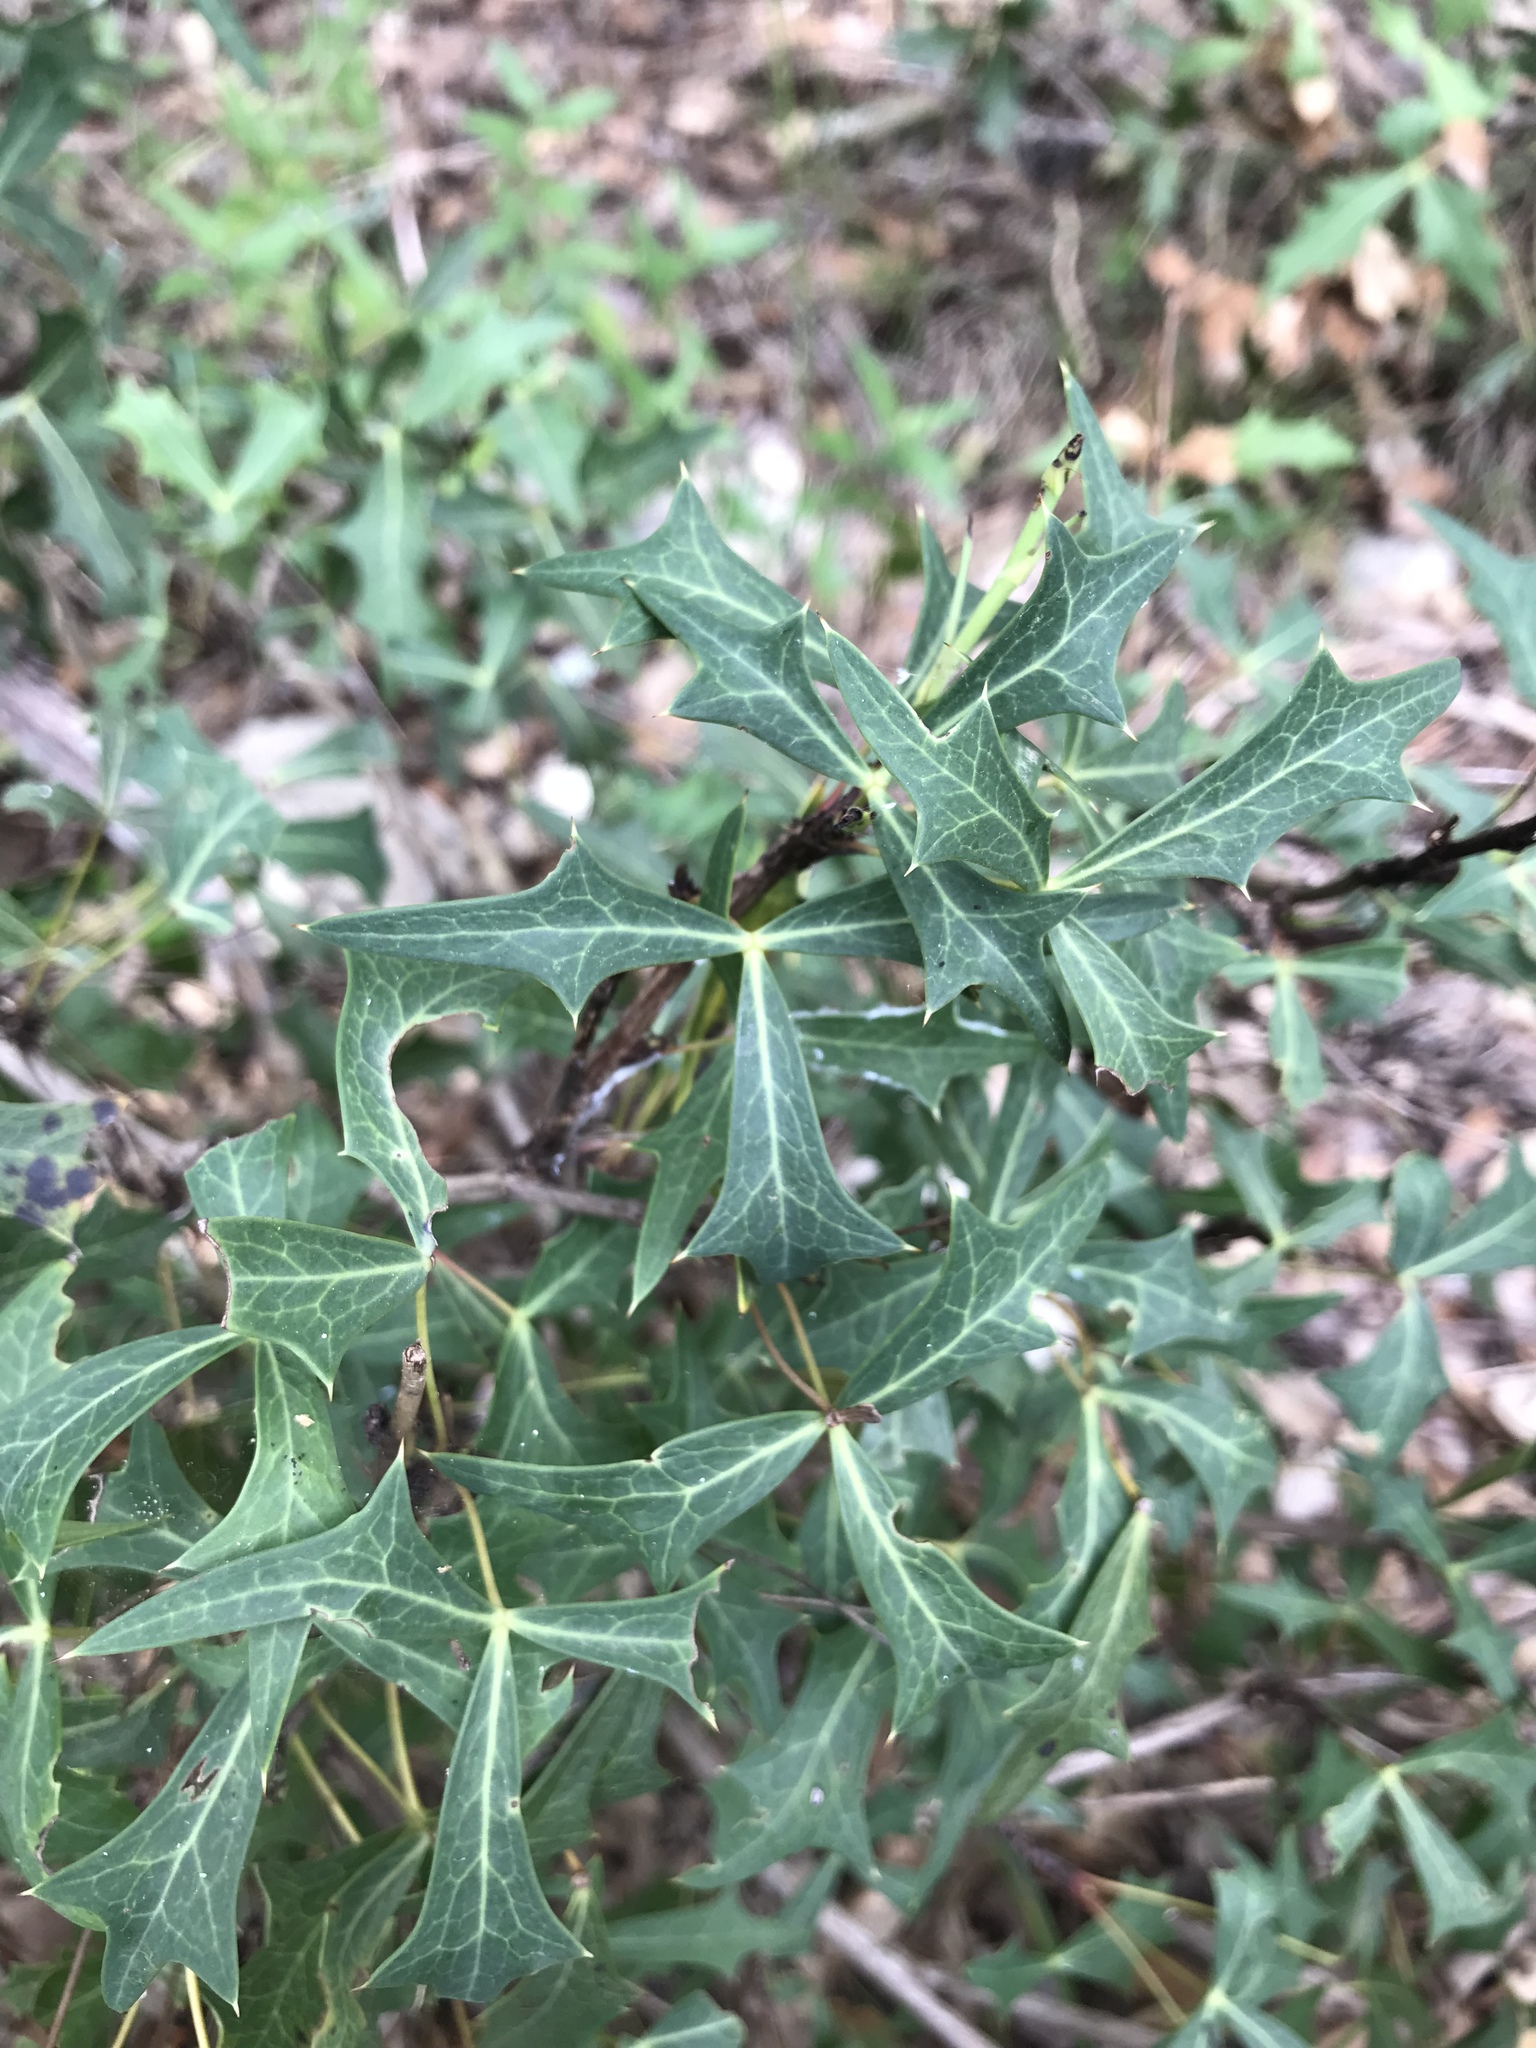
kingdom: Plantae
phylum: Tracheophyta
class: Magnoliopsida
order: Ranunculales
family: Berberidaceae
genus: Alloberberis
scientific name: Alloberberis trifoliolata
